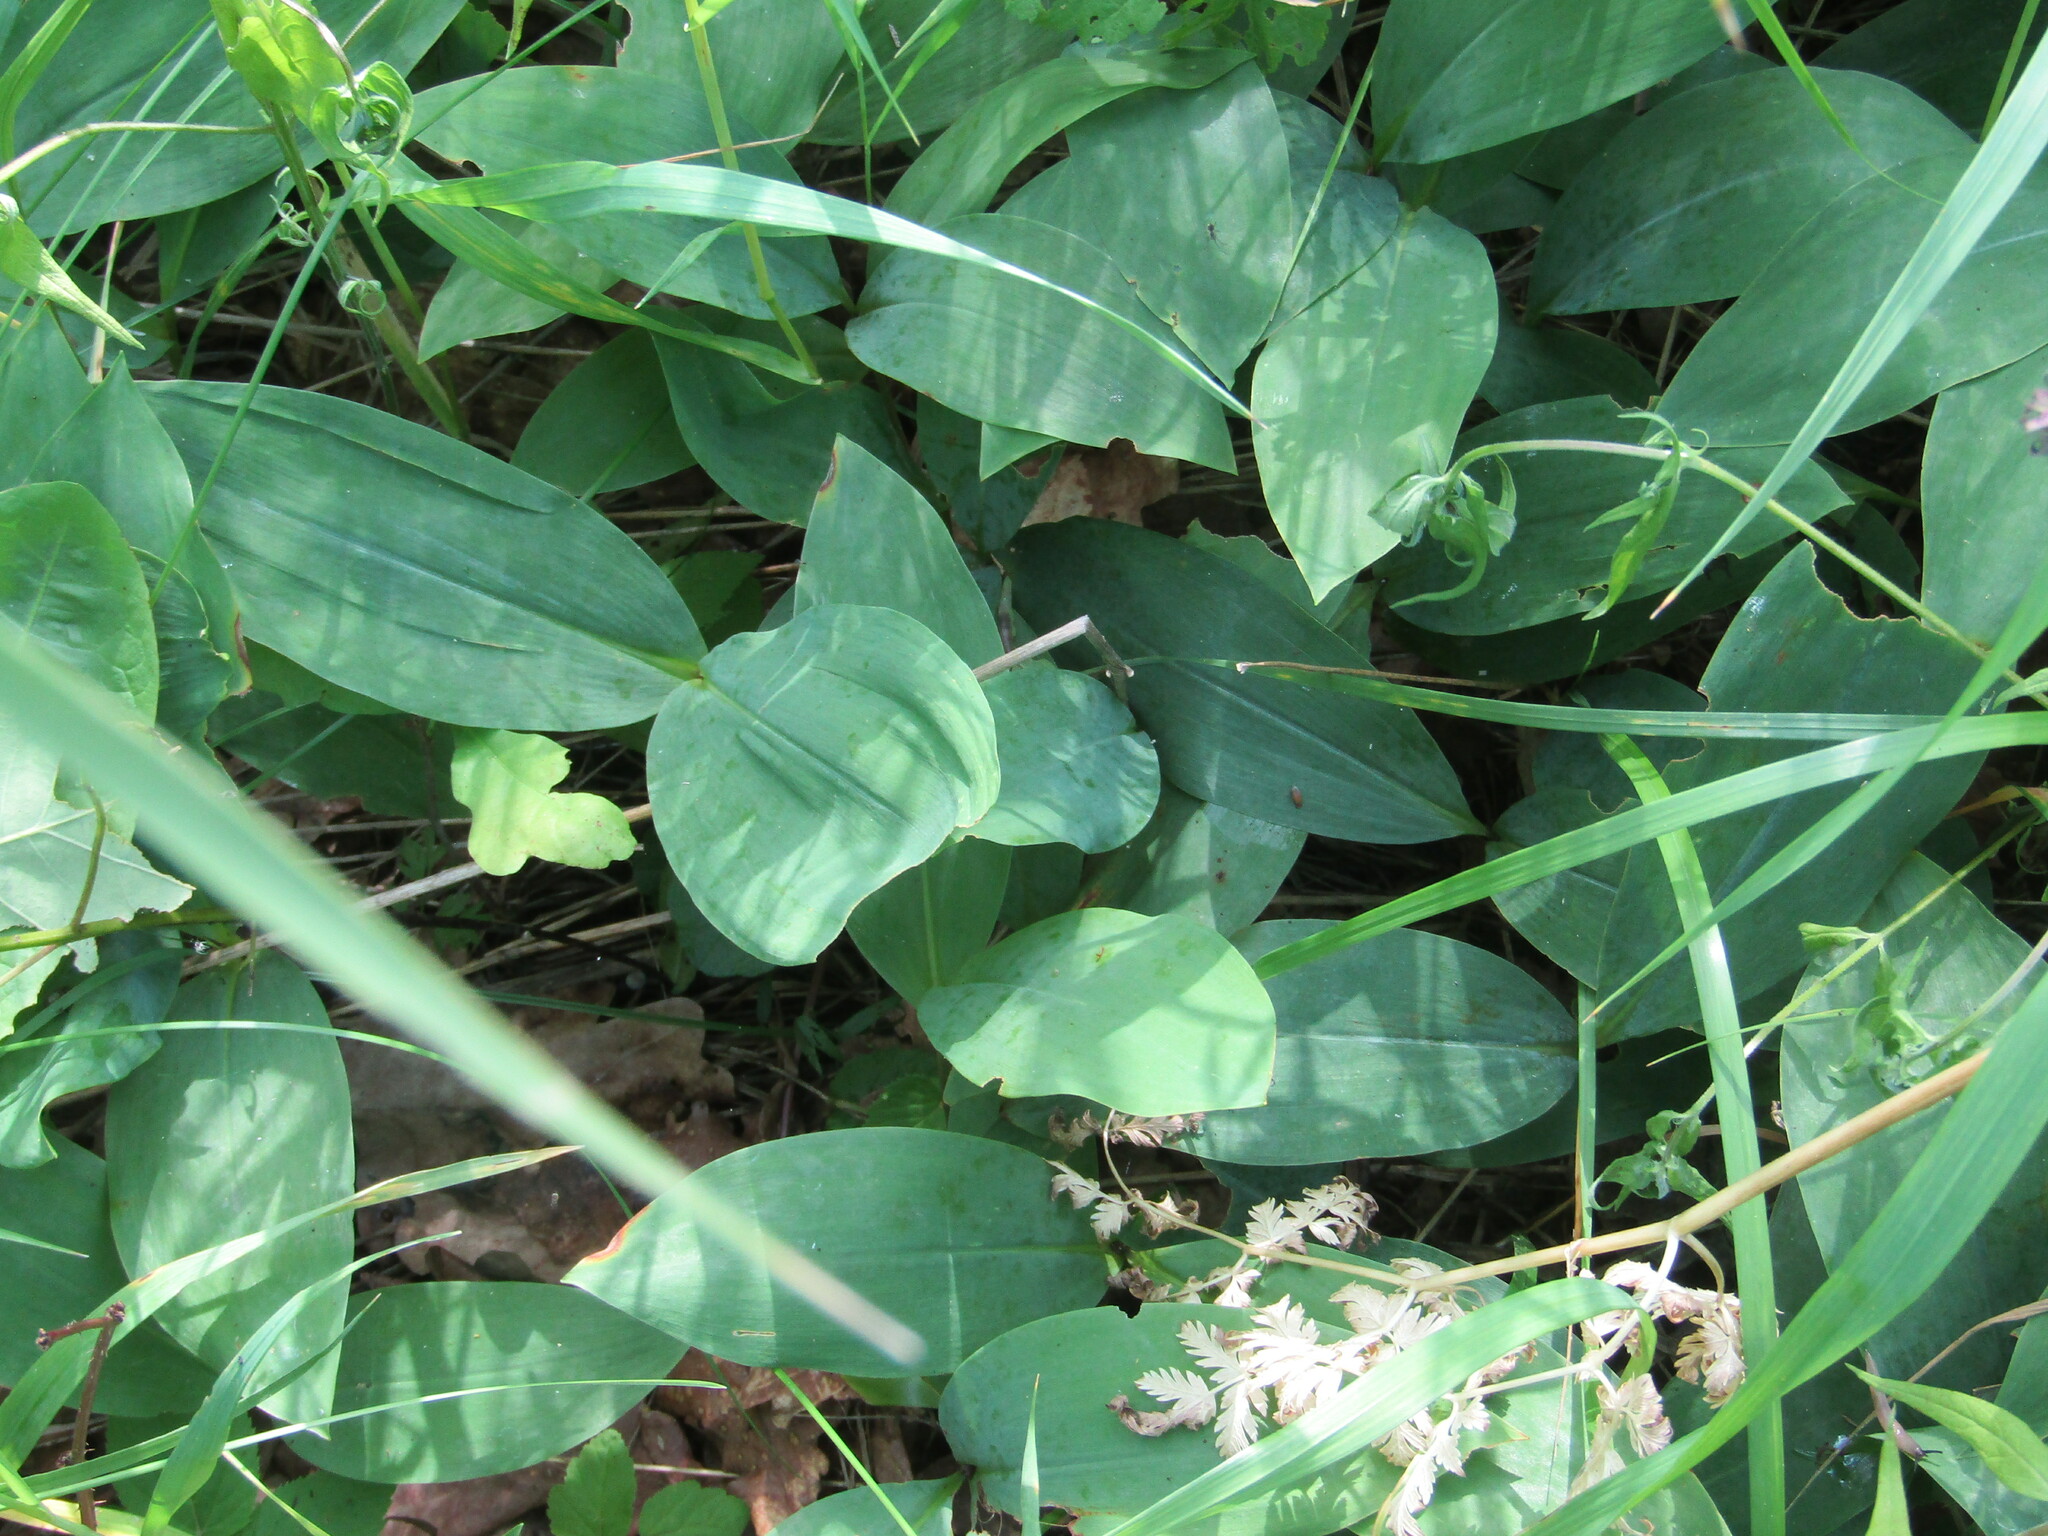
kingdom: Plantae
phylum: Tracheophyta
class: Liliopsida
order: Asparagales
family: Asparagaceae
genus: Convallaria
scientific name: Convallaria majalis
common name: Lily-of-the-valley
